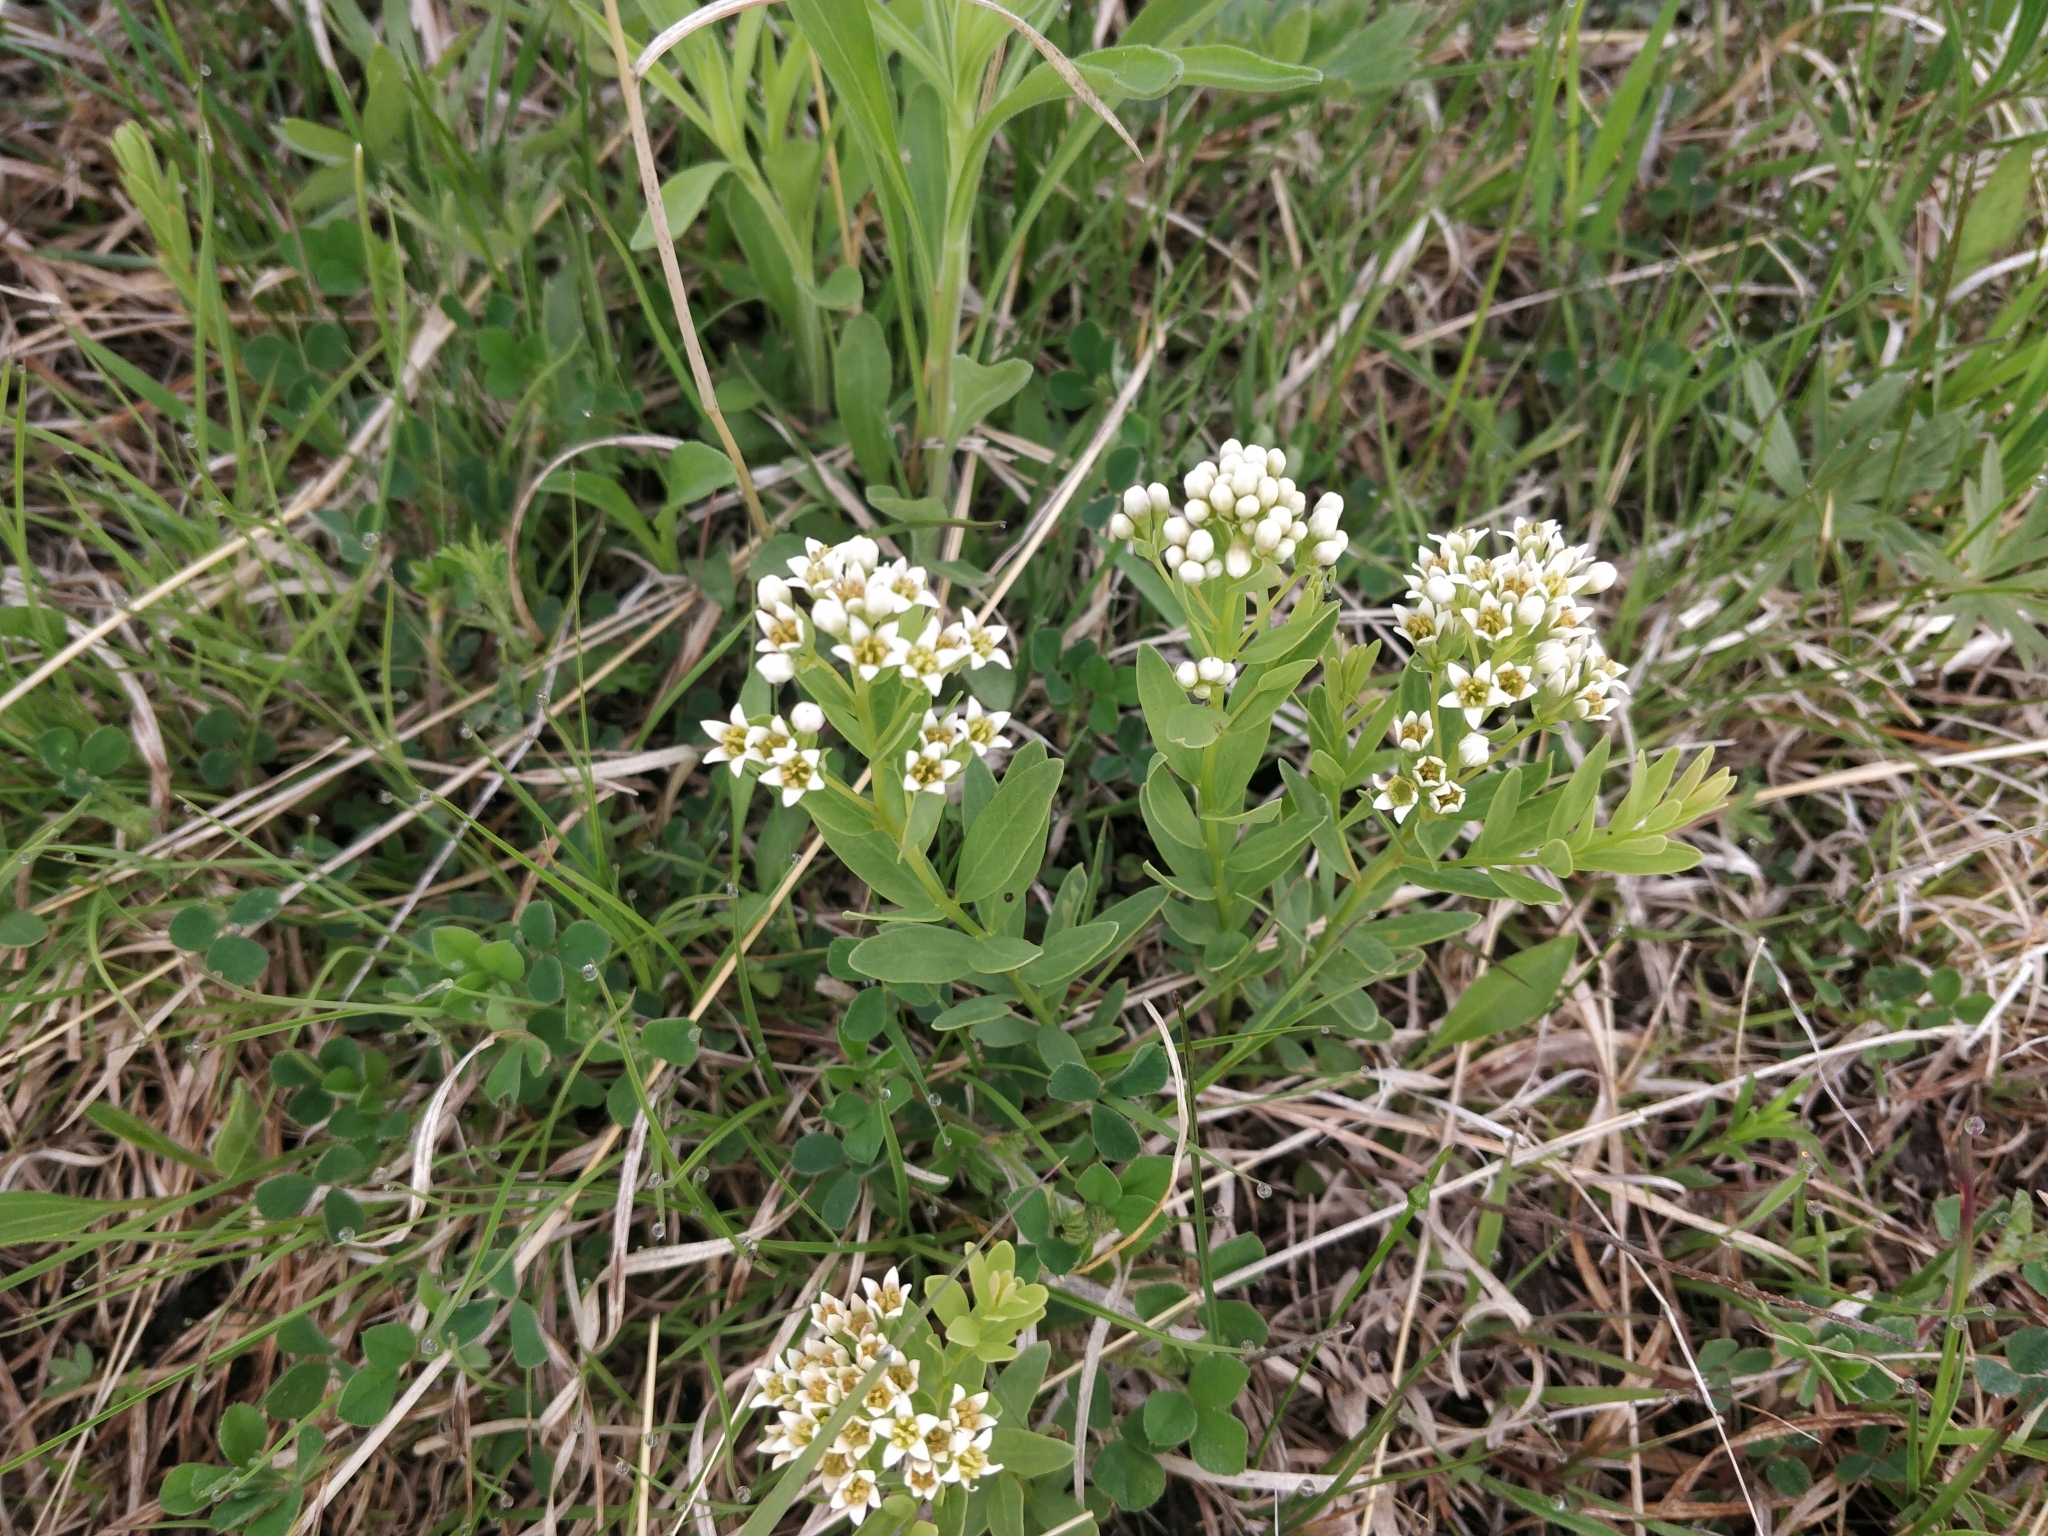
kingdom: Plantae
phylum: Tracheophyta
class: Magnoliopsida
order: Santalales
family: Comandraceae
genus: Comandra
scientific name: Comandra umbellata
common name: Bastard toadflax
